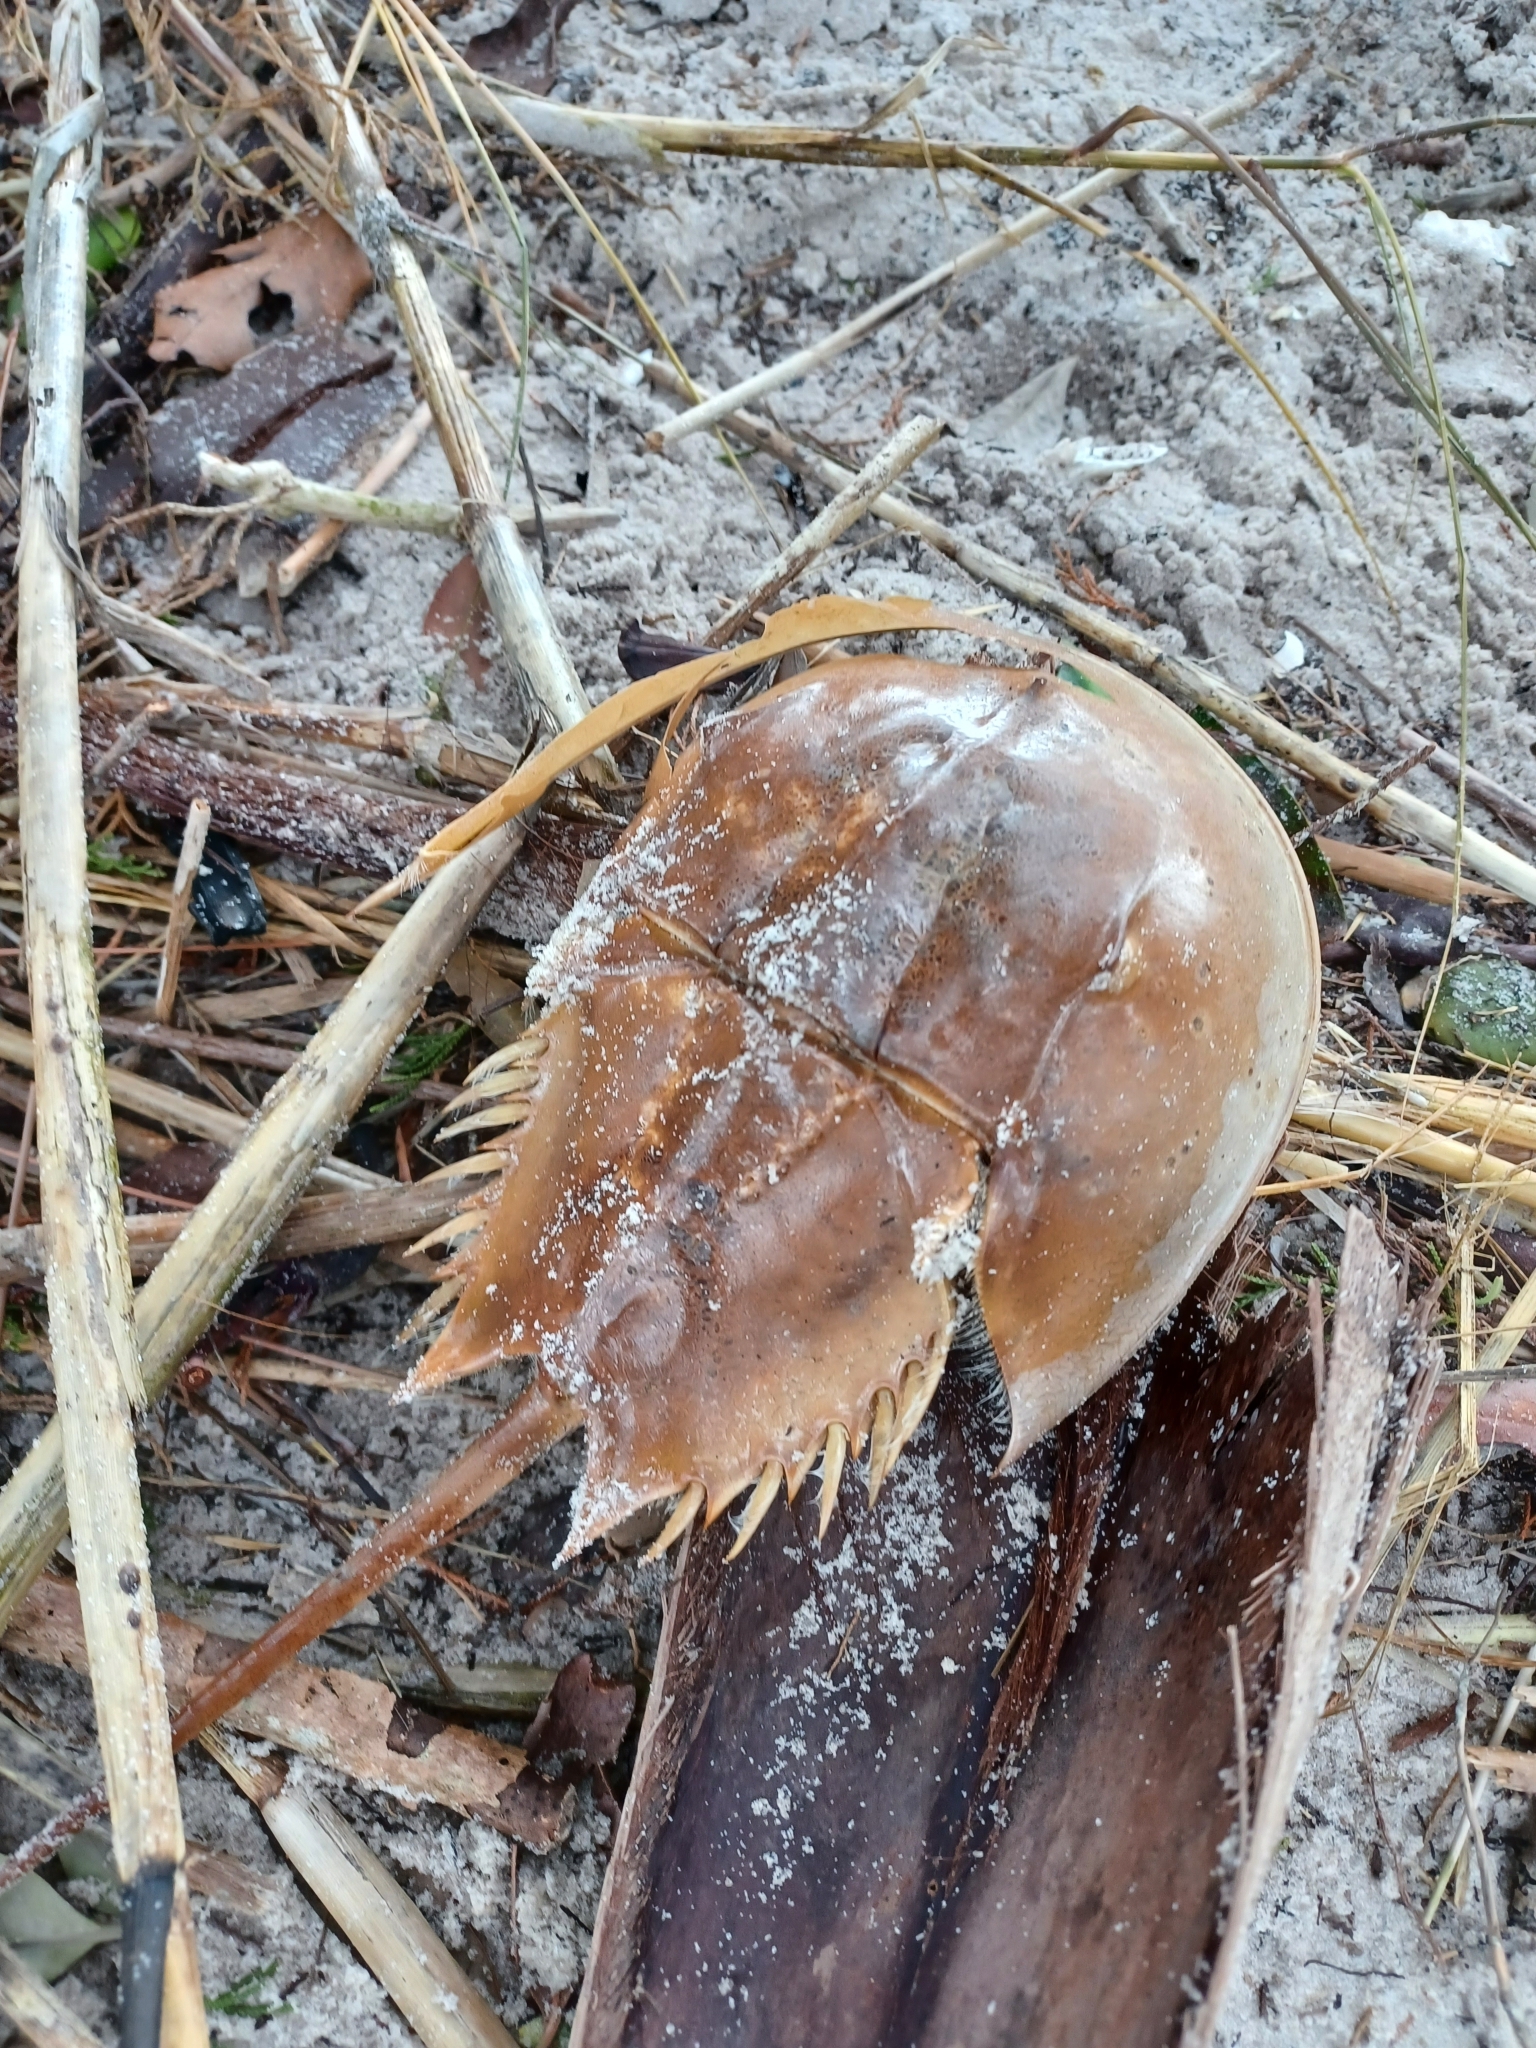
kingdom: Animalia
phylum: Arthropoda
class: Merostomata
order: Xiphosurida
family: Limulidae
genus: Limulus
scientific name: Limulus polyphemus
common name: Horseshoe crab
